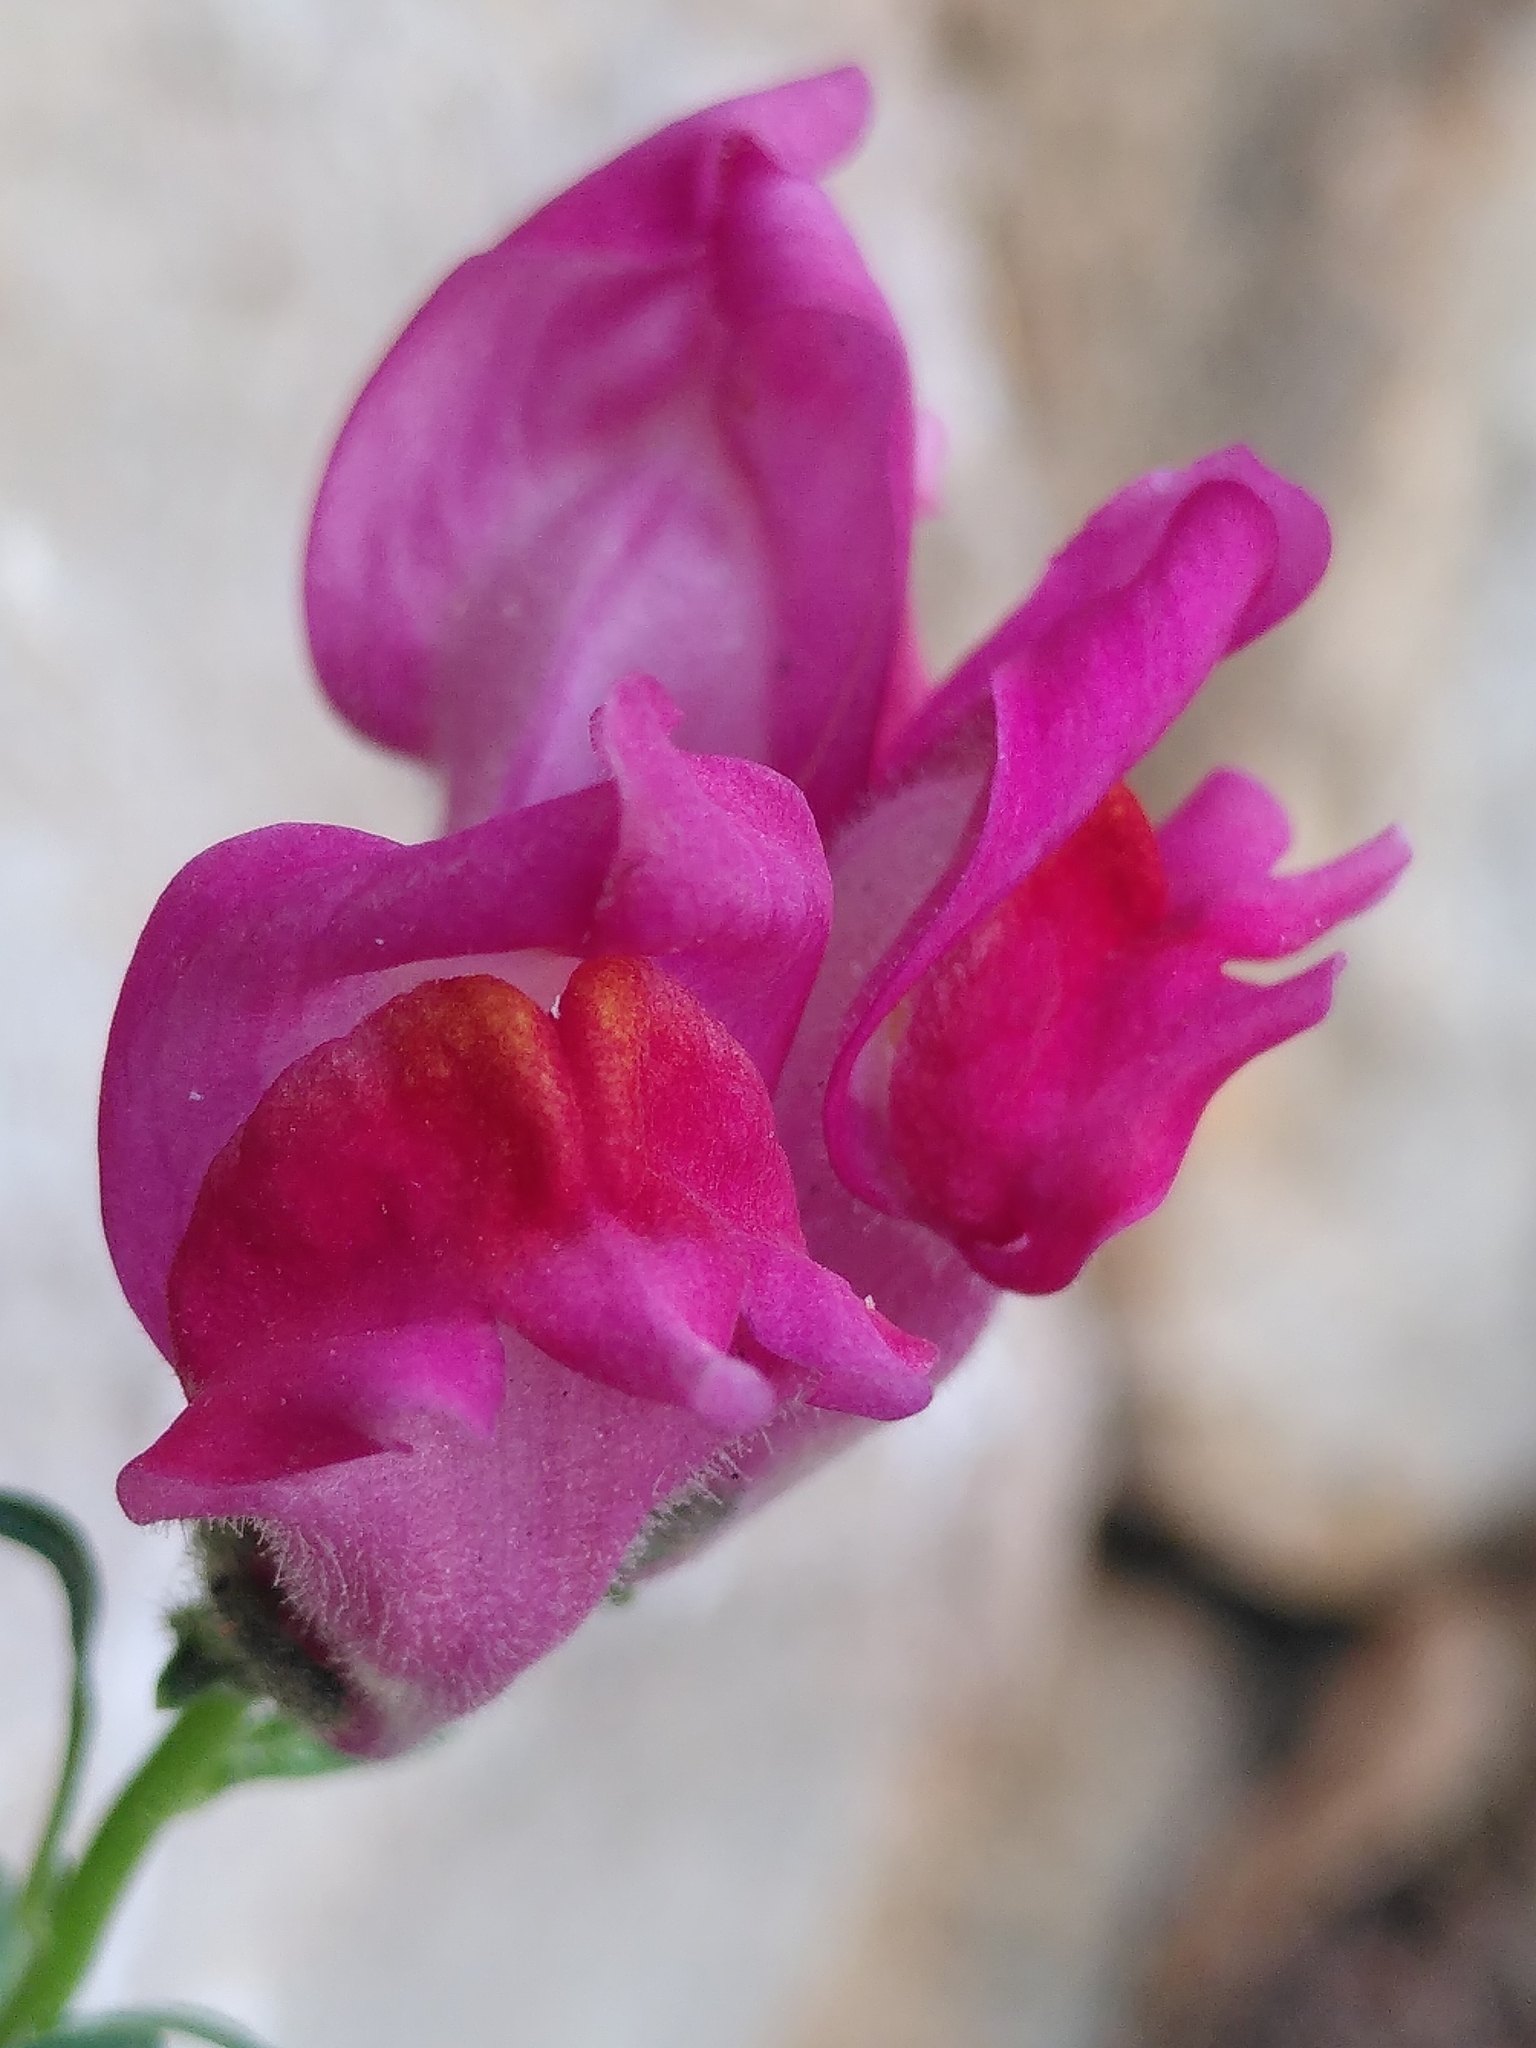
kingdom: Plantae
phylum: Tracheophyta
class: Magnoliopsida
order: Lamiales
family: Plantaginaceae
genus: Antirrhinum
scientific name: Antirrhinum majus
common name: Snapdragon
